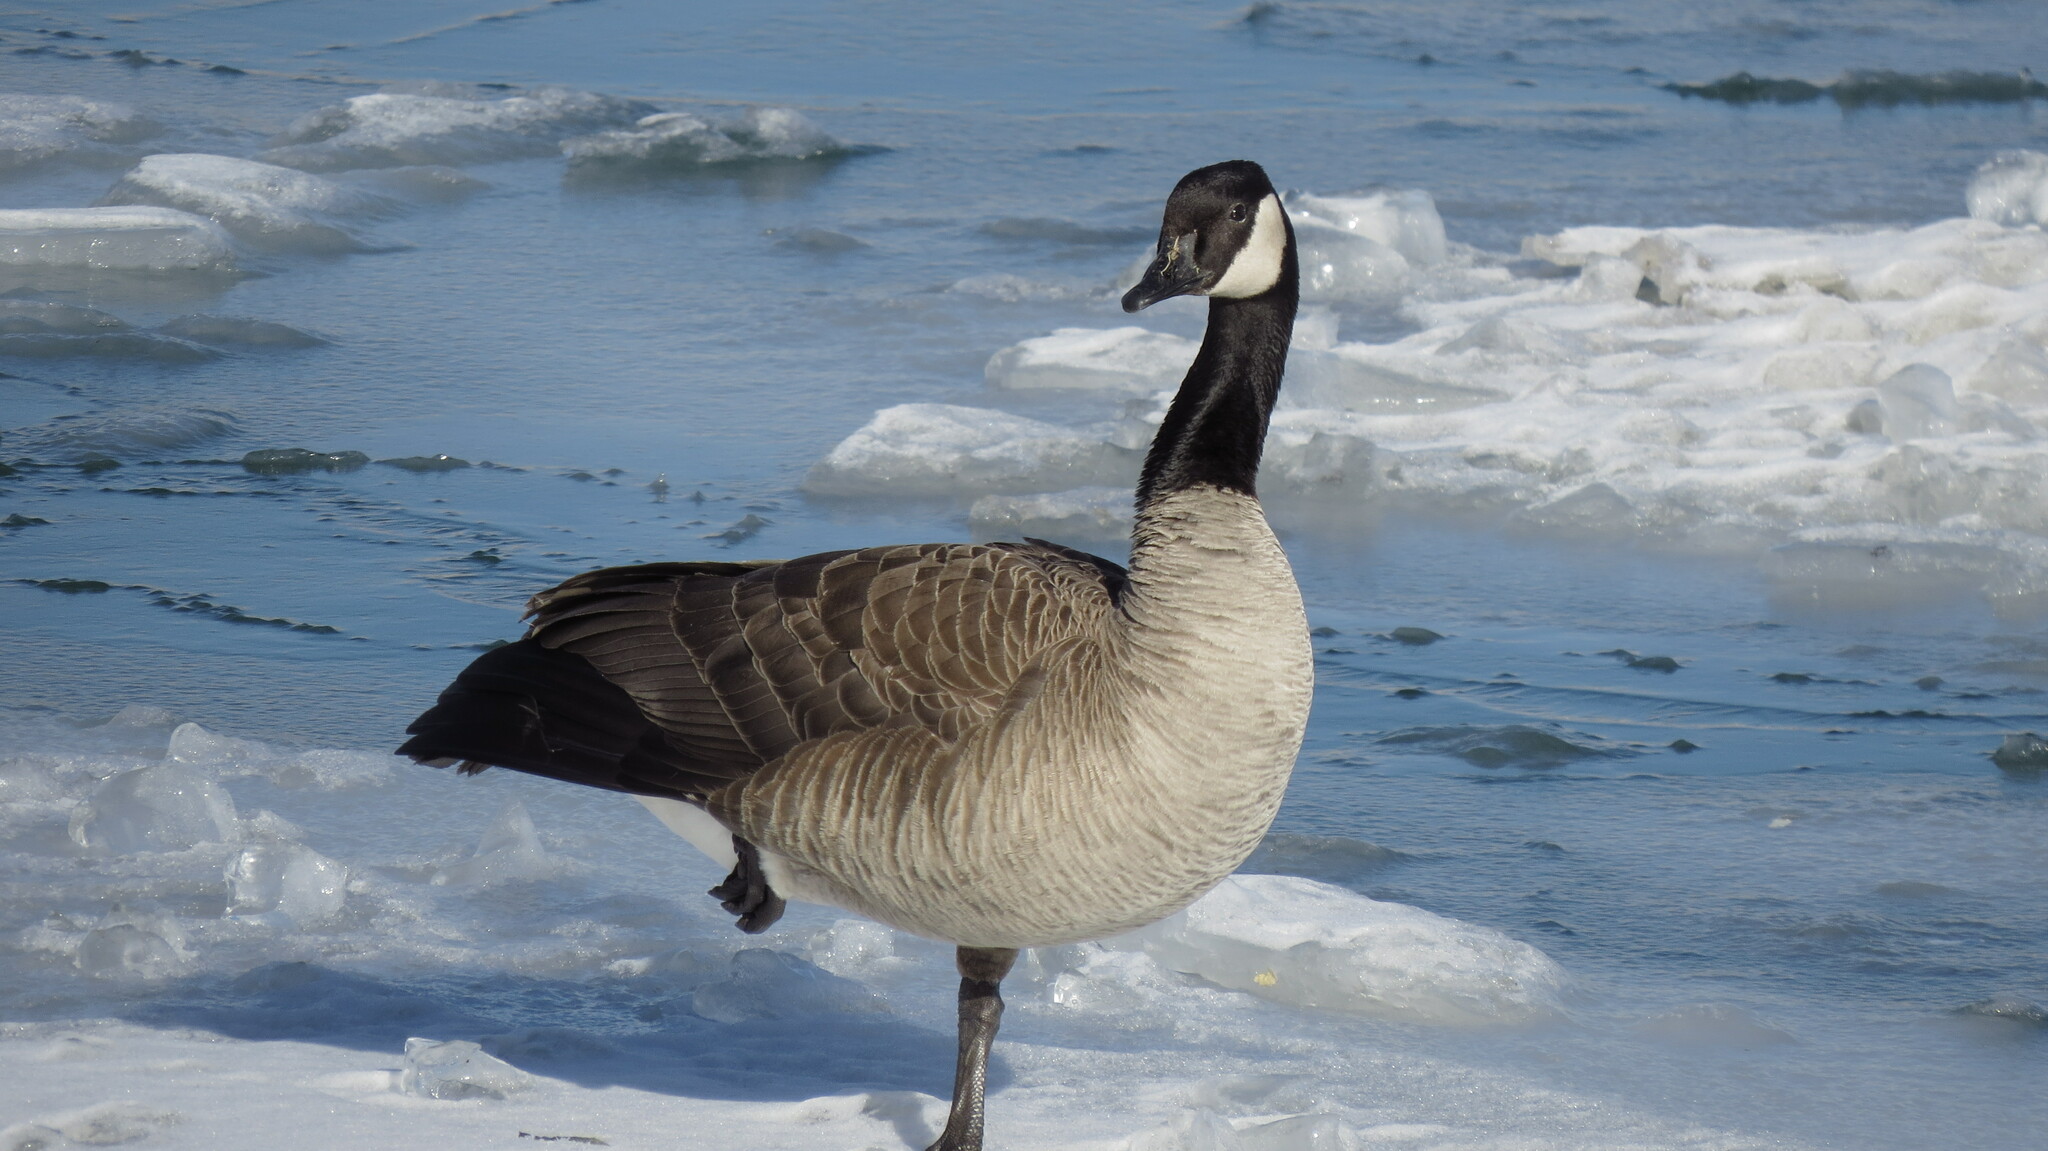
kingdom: Animalia
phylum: Chordata
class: Aves
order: Anseriformes
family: Anatidae
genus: Branta
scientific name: Branta canadensis
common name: Canada goose
